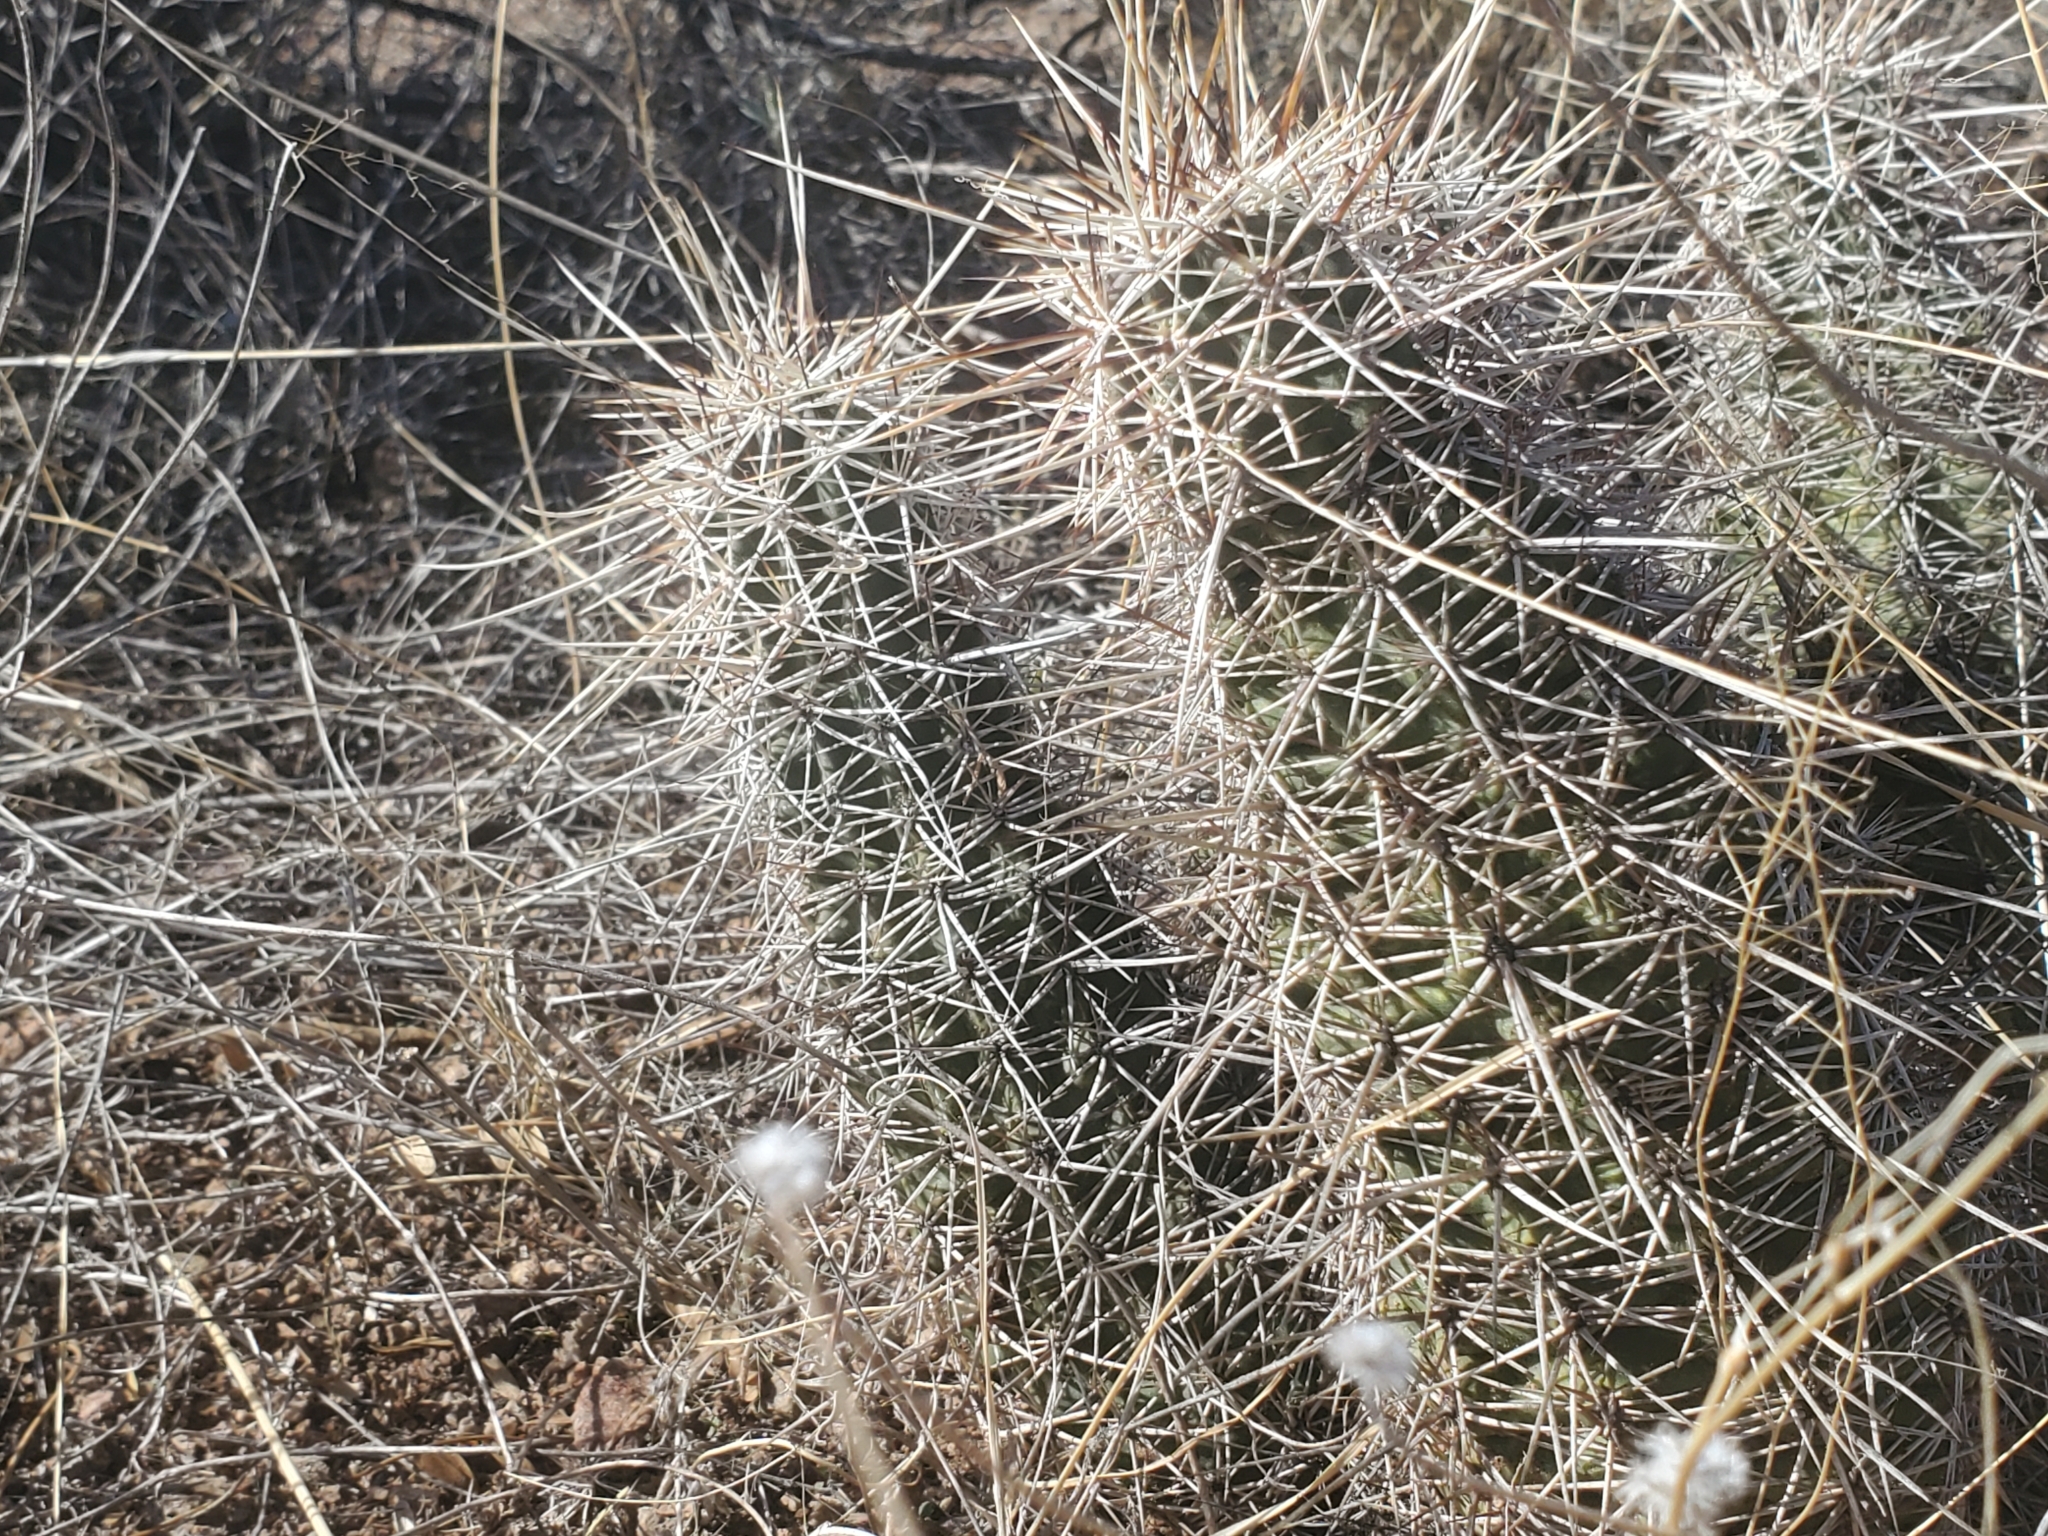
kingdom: Plantae
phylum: Tracheophyta
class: Magnoliopsida
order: Caryophyllales
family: Cactaceae
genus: Echinocereus
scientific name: Echinocereus fasciculatus
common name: Bundle hedgehog
